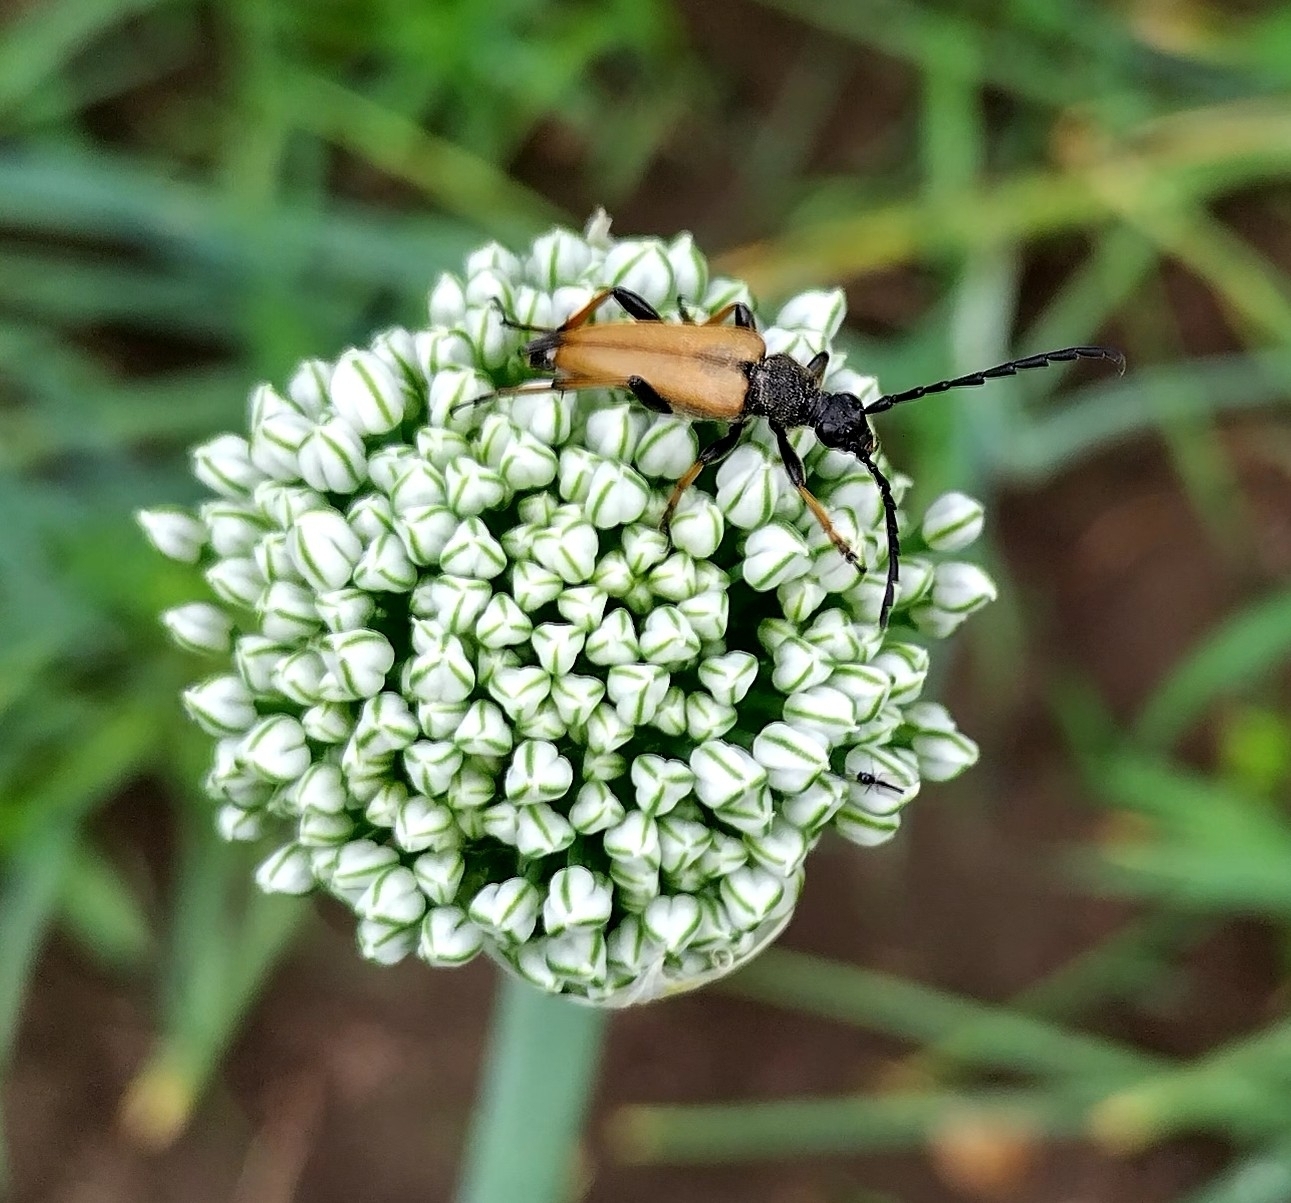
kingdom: Animalia
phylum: Arthropoda
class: Insecta
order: Coleoptera
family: Cerambycidae
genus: Stictoleptura
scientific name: Stictoleptura rubra
